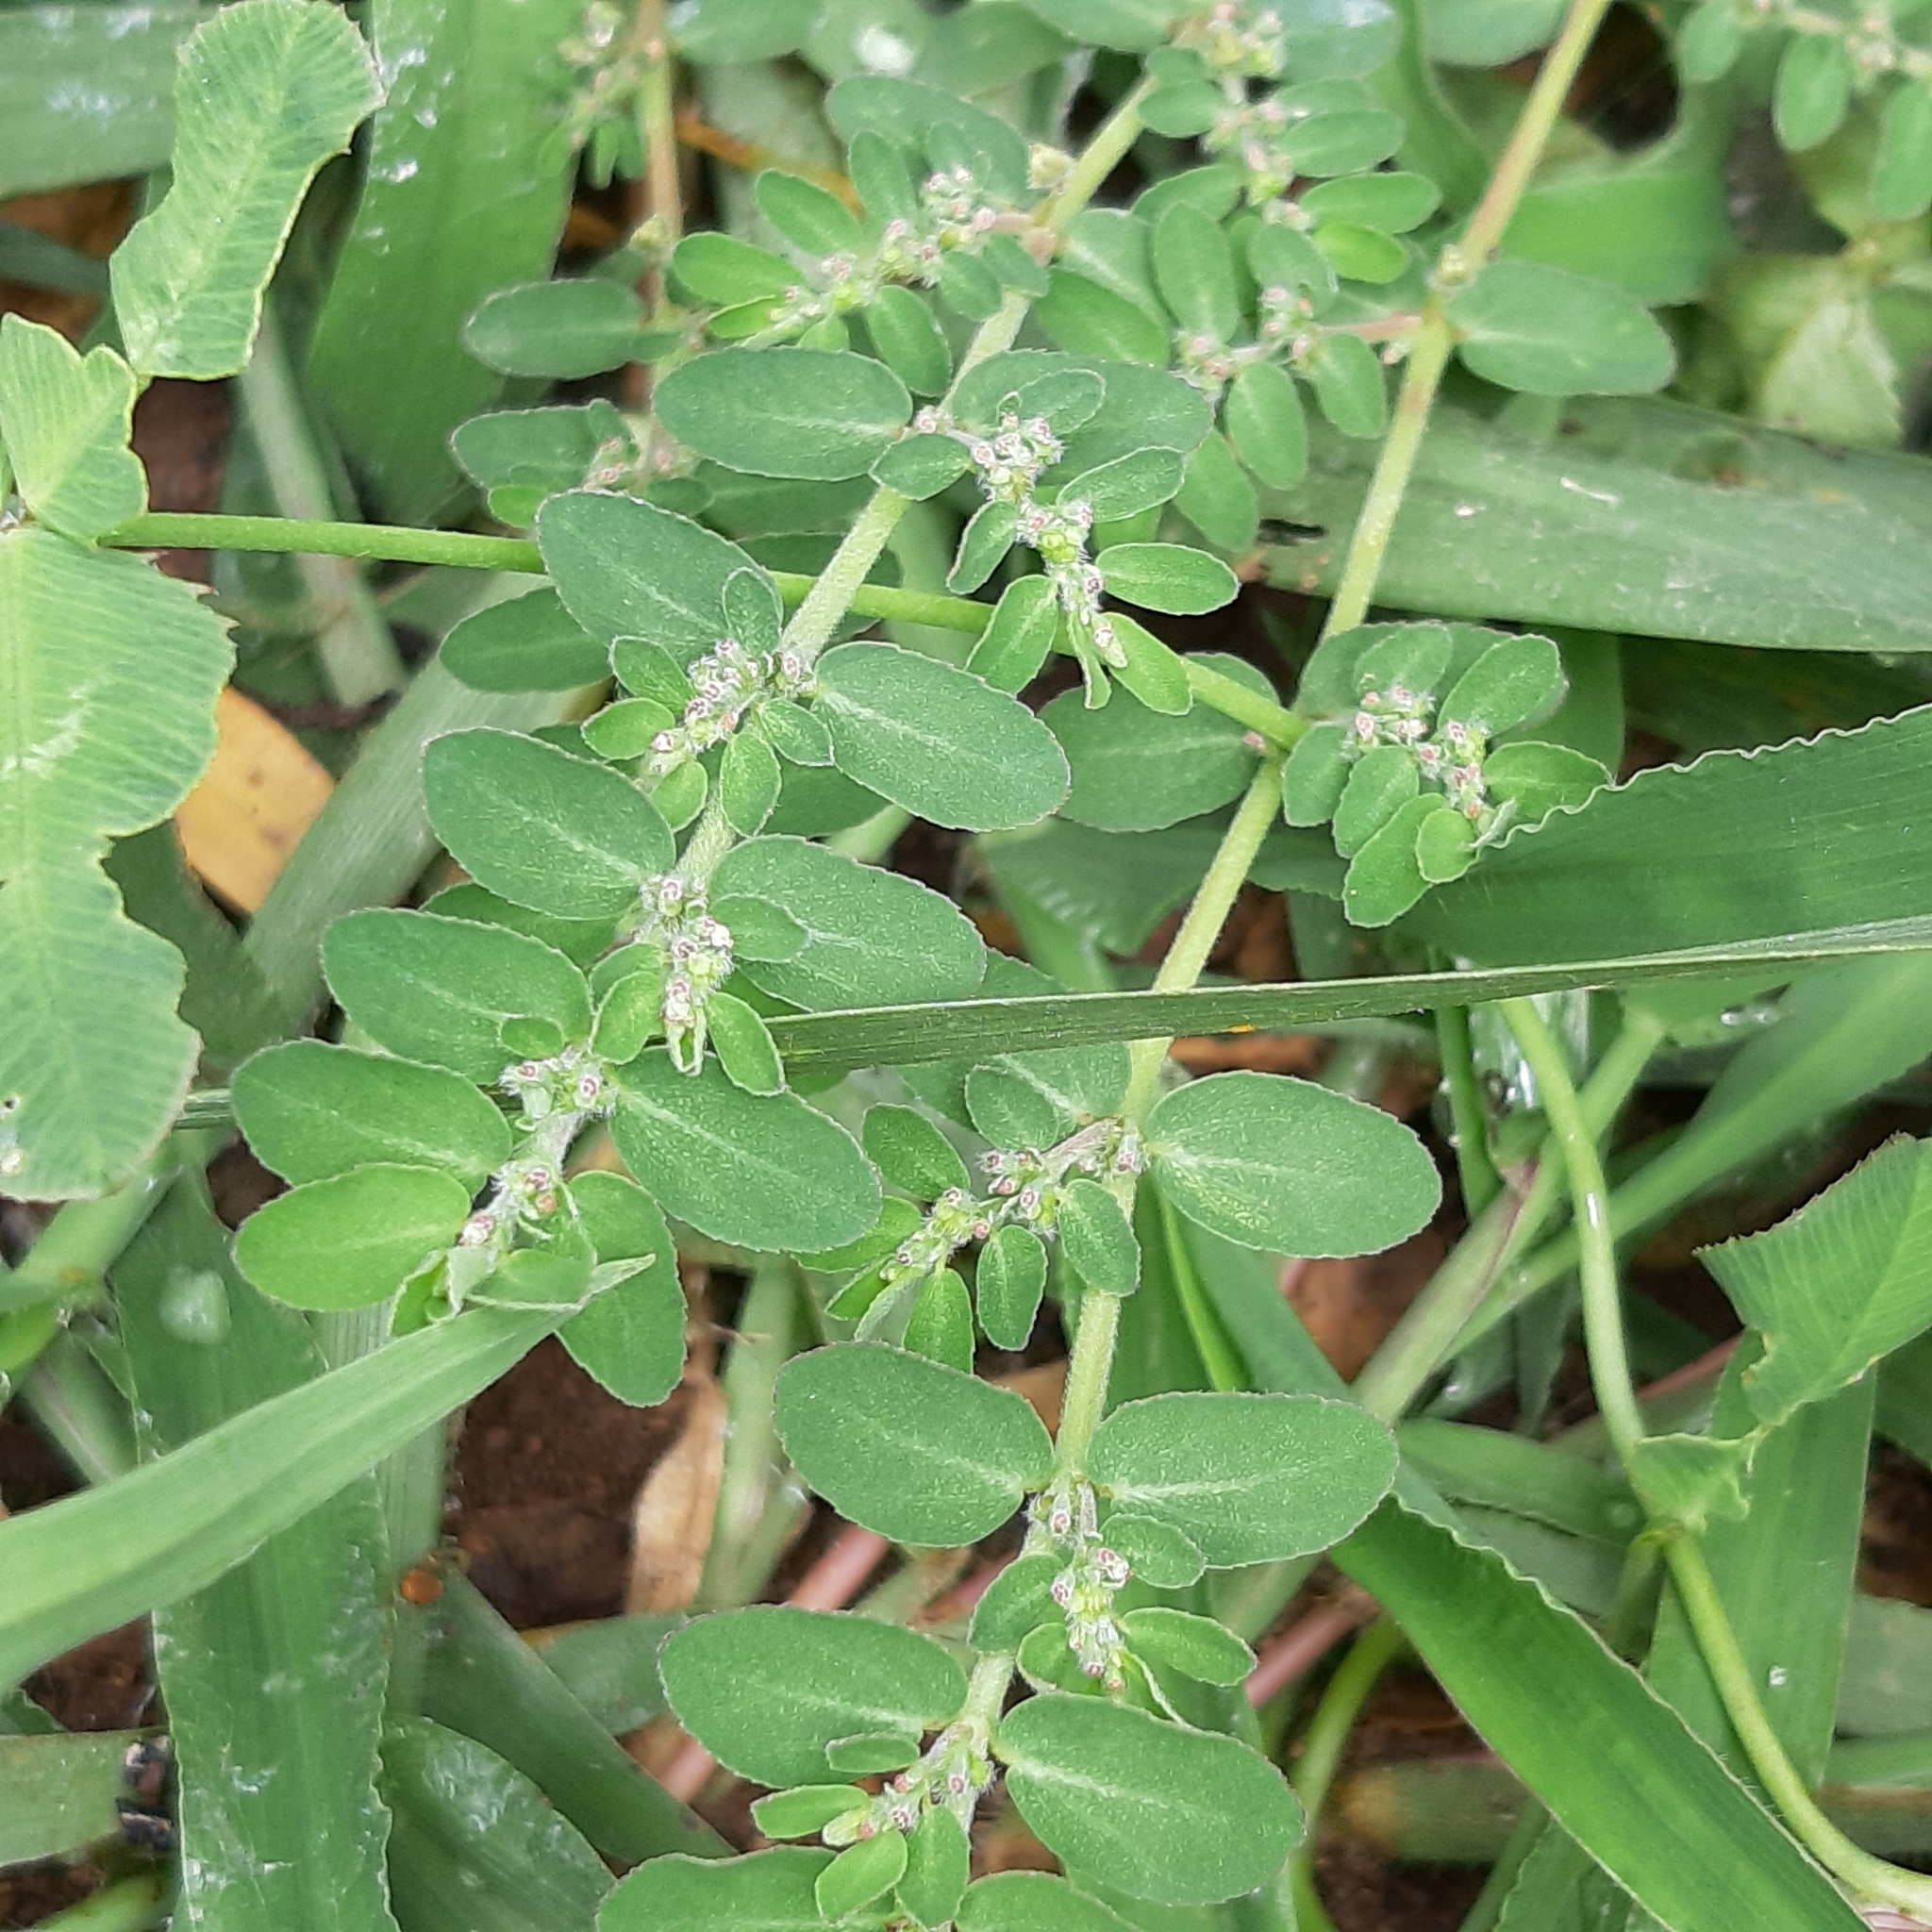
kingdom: Plantae
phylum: Tracheophyta
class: Magnoliopsida
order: Malpighiales
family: Euphorbiaceae
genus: Euphorbia
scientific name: Euphorbia prostrata
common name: Prostrate sandmat
